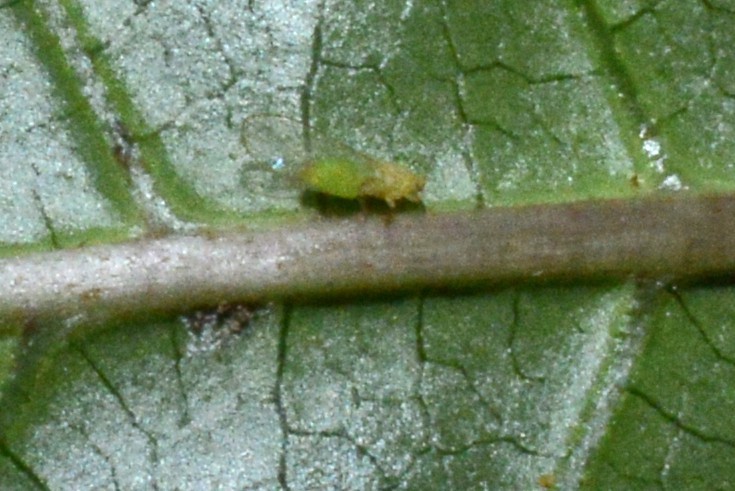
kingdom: Animalia
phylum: Arthropoda
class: Insecta
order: Hemiptera
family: Triozidae
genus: Powellia
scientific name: Powellia
